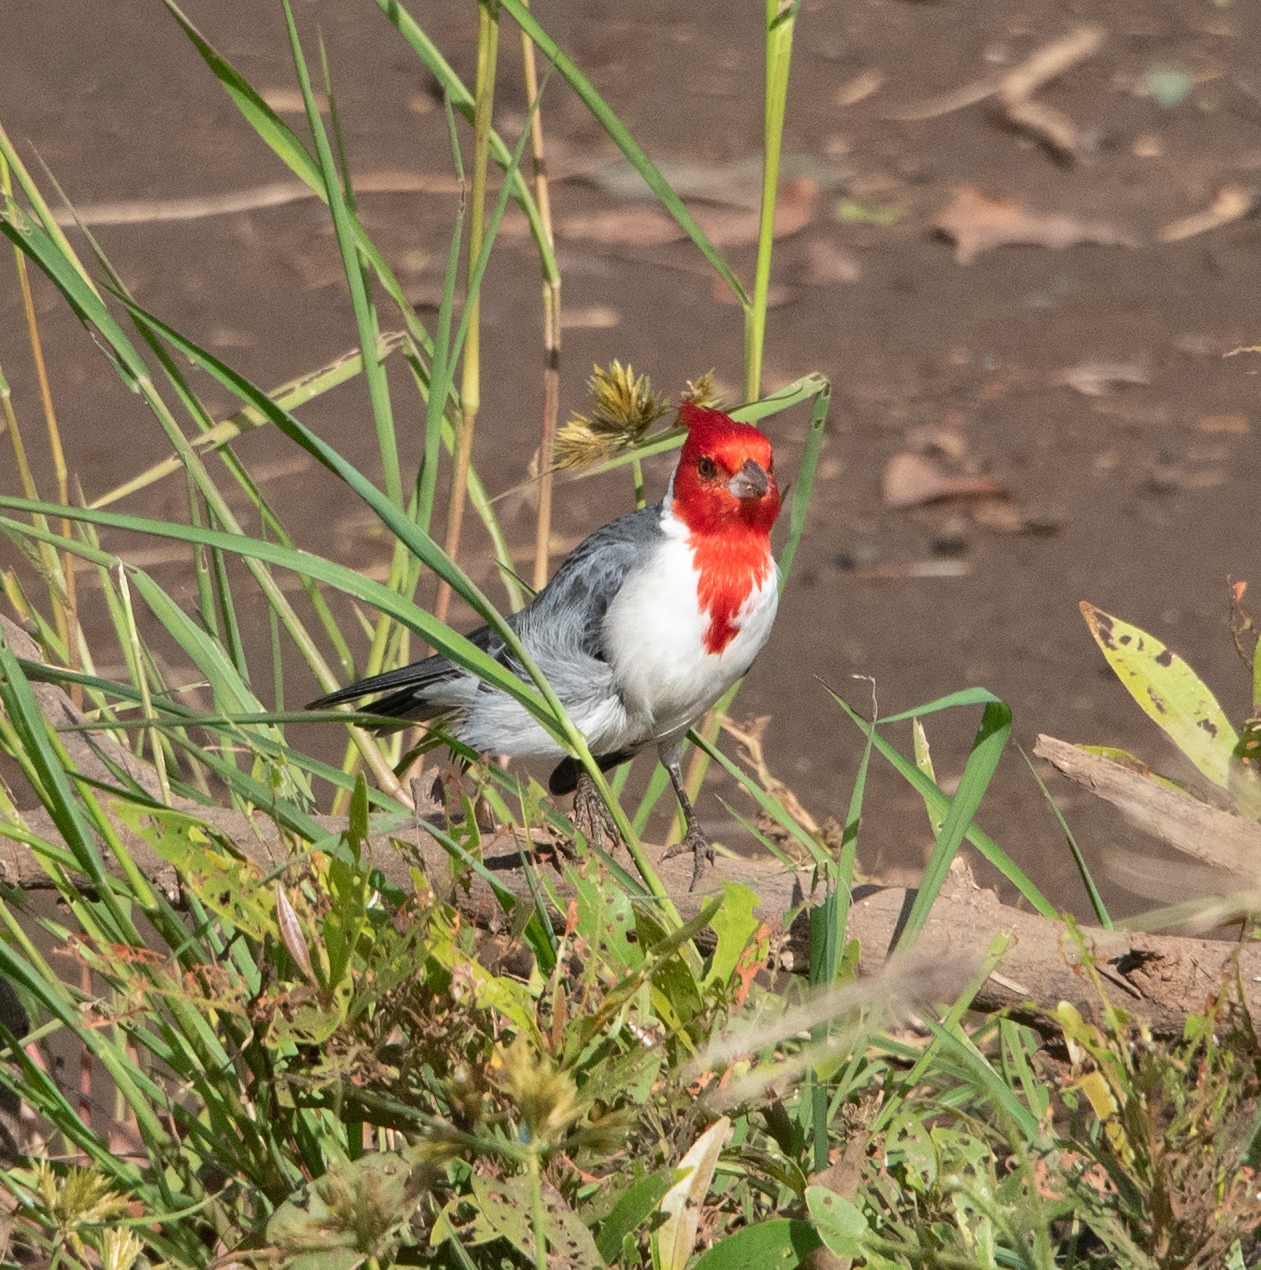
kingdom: Animalia
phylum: Chordata
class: Aves
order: Passeriformes
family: Thraupidae
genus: Paroaria
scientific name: Paroaria coronata
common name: Red-crested cardinal
